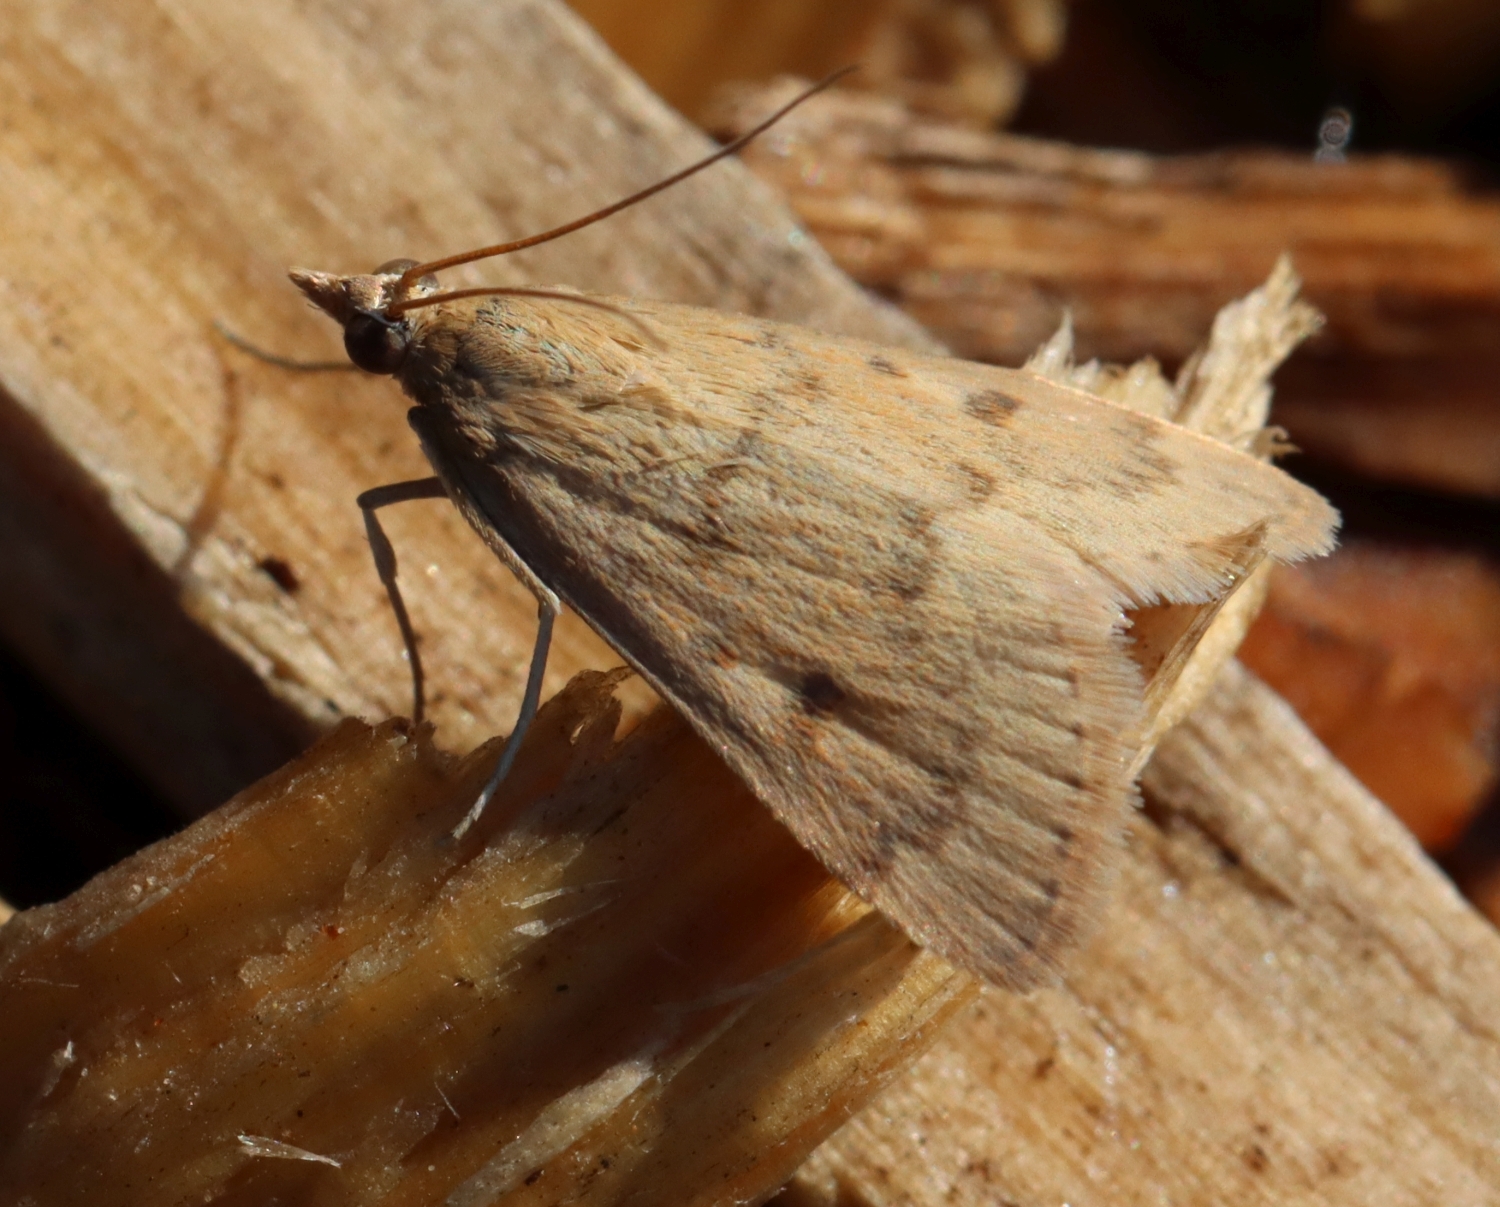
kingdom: Animalia
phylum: Arthropoda
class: Insecta
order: Lepidoptera
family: Crambidae
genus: Achyra
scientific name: Achyra rantalis
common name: Garden webworm
